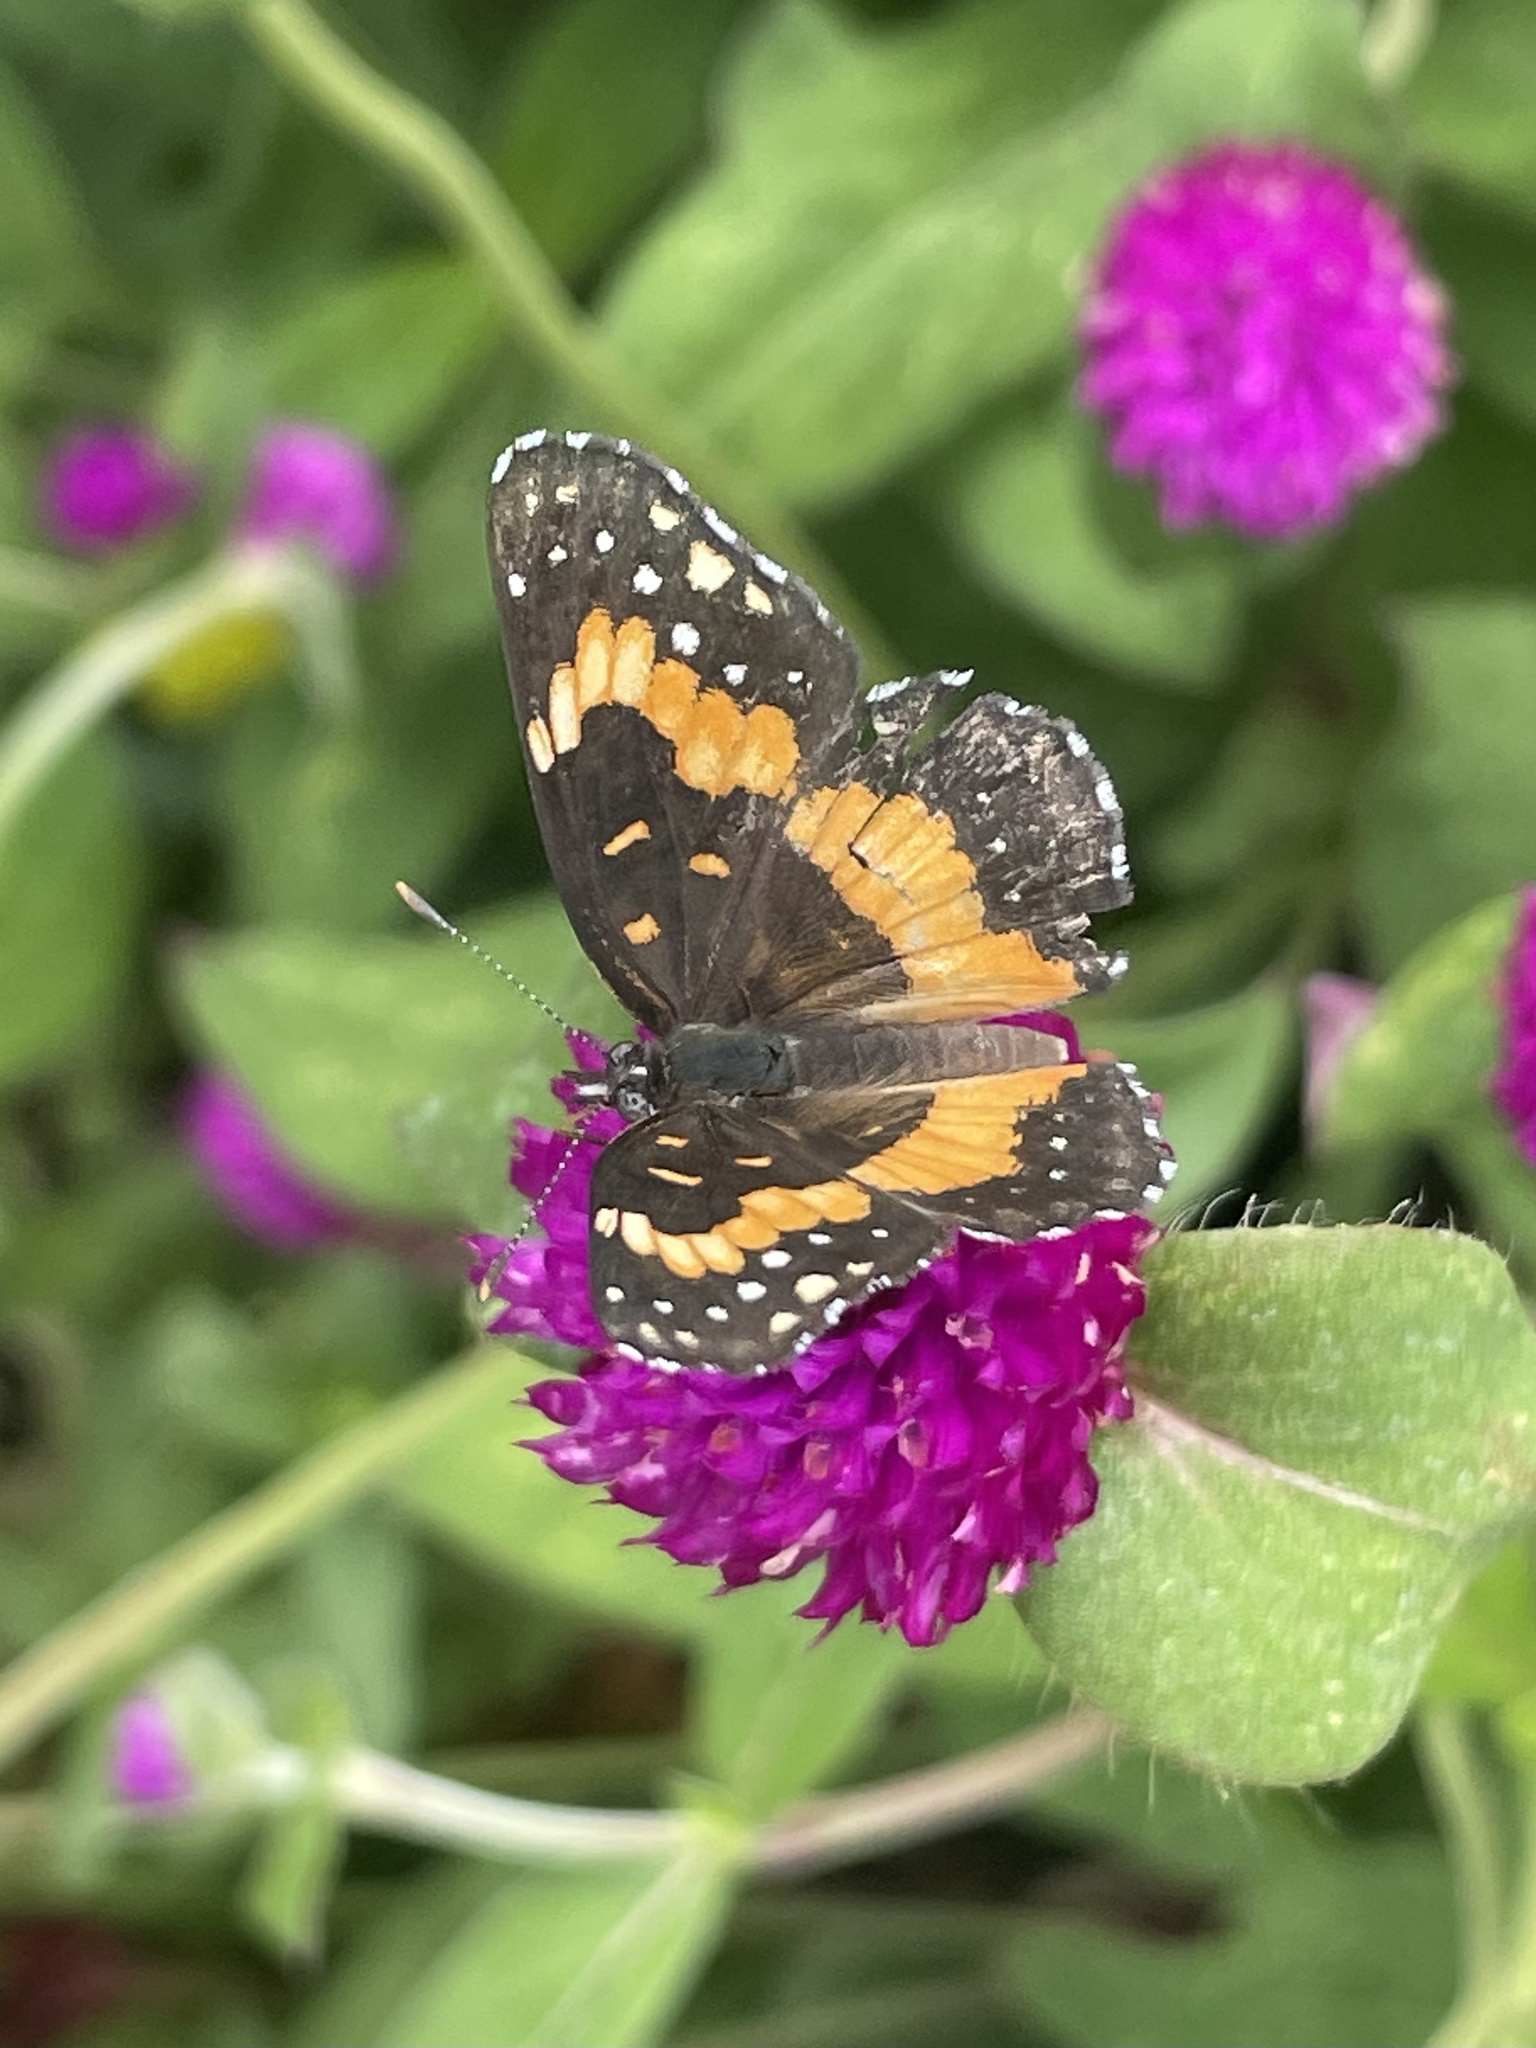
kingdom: Animalia
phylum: Arthropoda
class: Insecta
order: Lepidoptera
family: Nymphalidae
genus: Chlosyne
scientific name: Chlosyne lacinia
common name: Bordered patch
